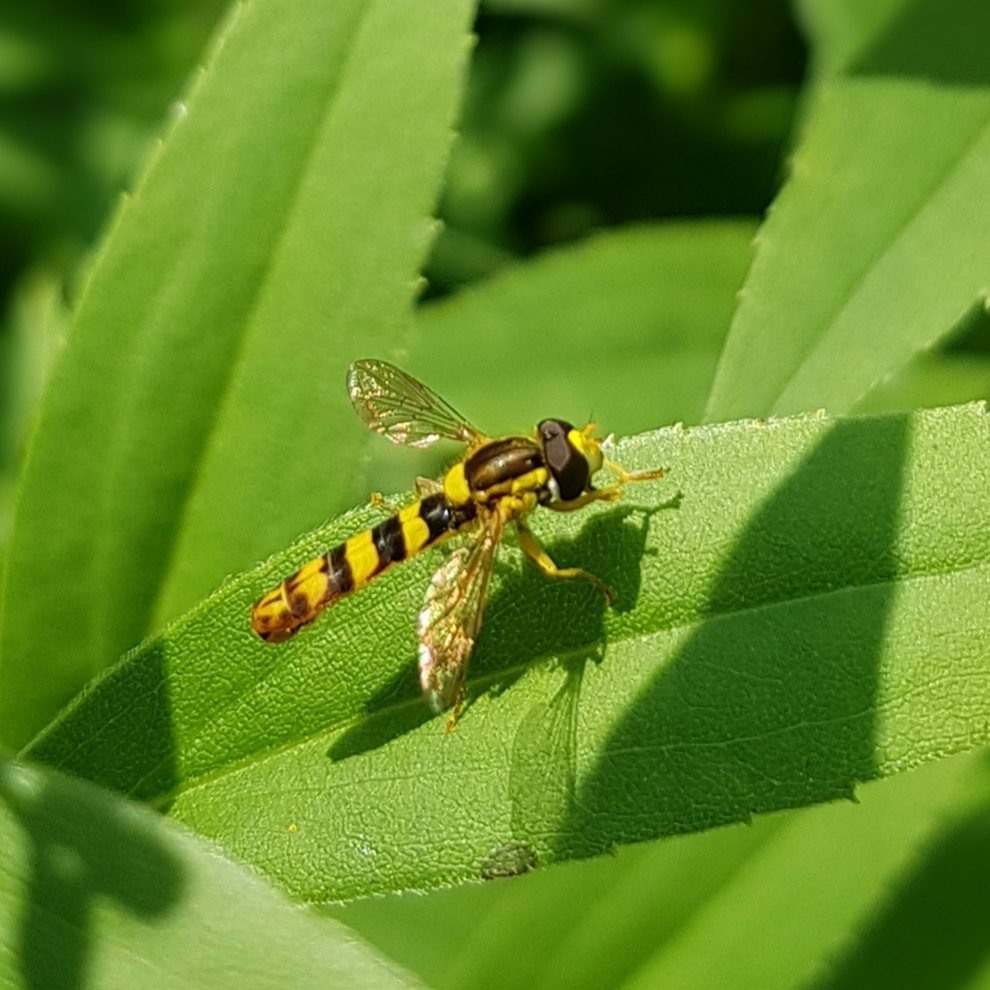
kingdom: Animalia
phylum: Arthropoda
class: Insecta
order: Diptera
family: Syrphidae
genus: Sphaerophoria
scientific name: Sphaerophoria scripta
